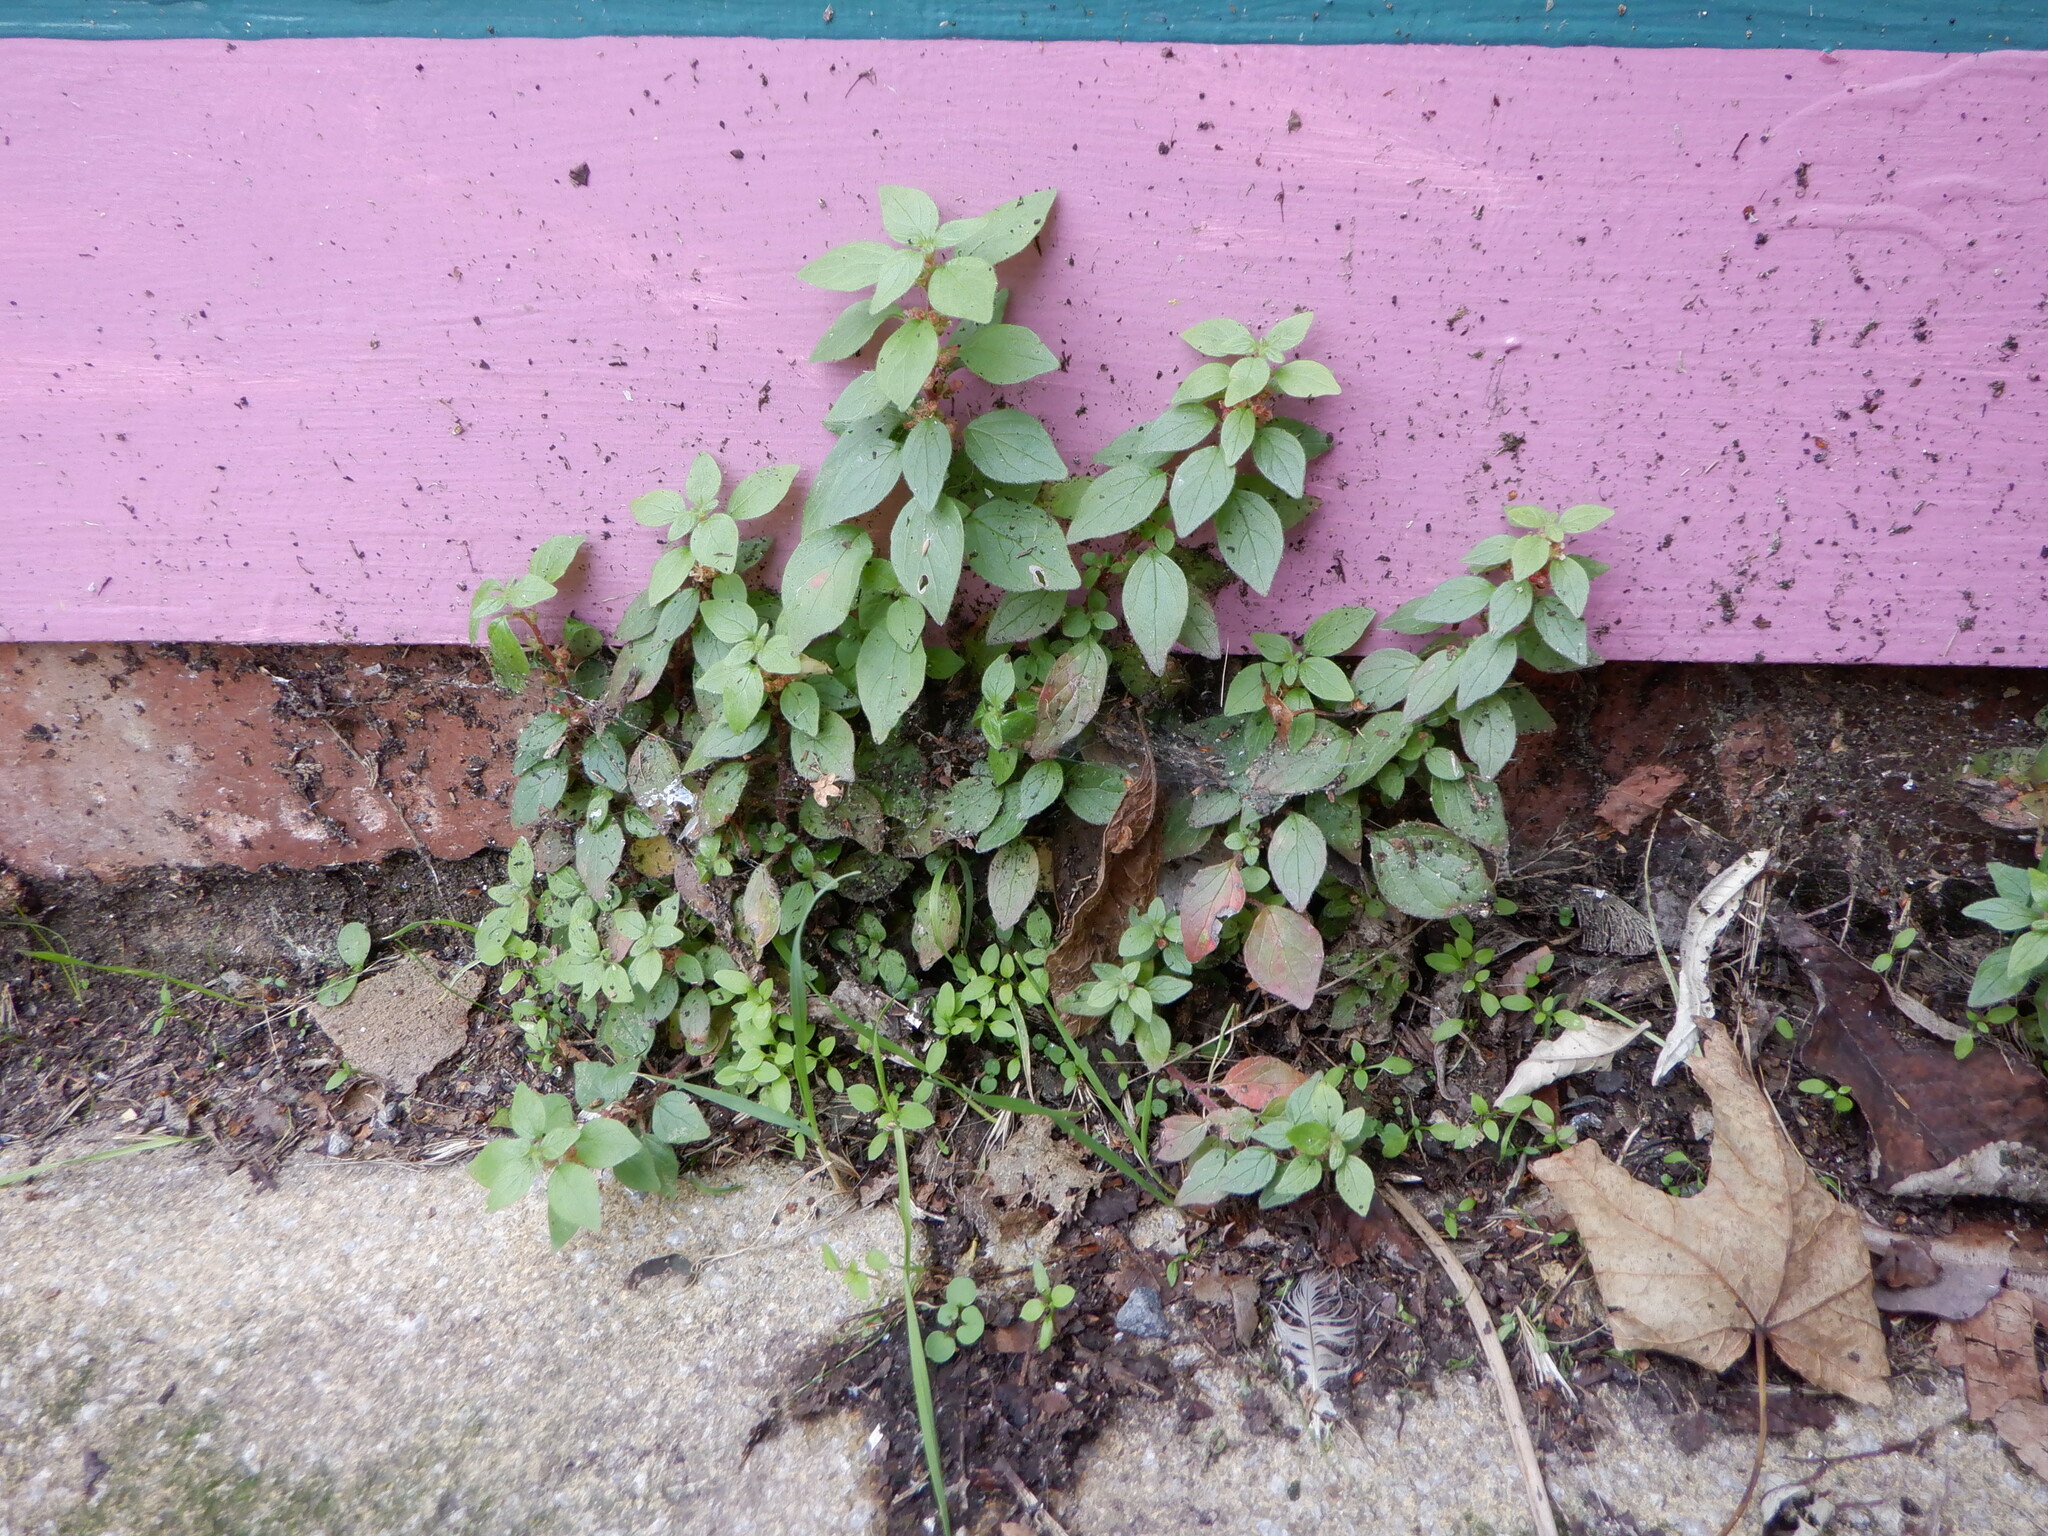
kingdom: Plantae
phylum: Tracheophyta
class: Magnoliopsida
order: Rosales
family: Urticaceae
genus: Parietaria
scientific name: Parietaria judaica
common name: Pellitory-of-the-wall
